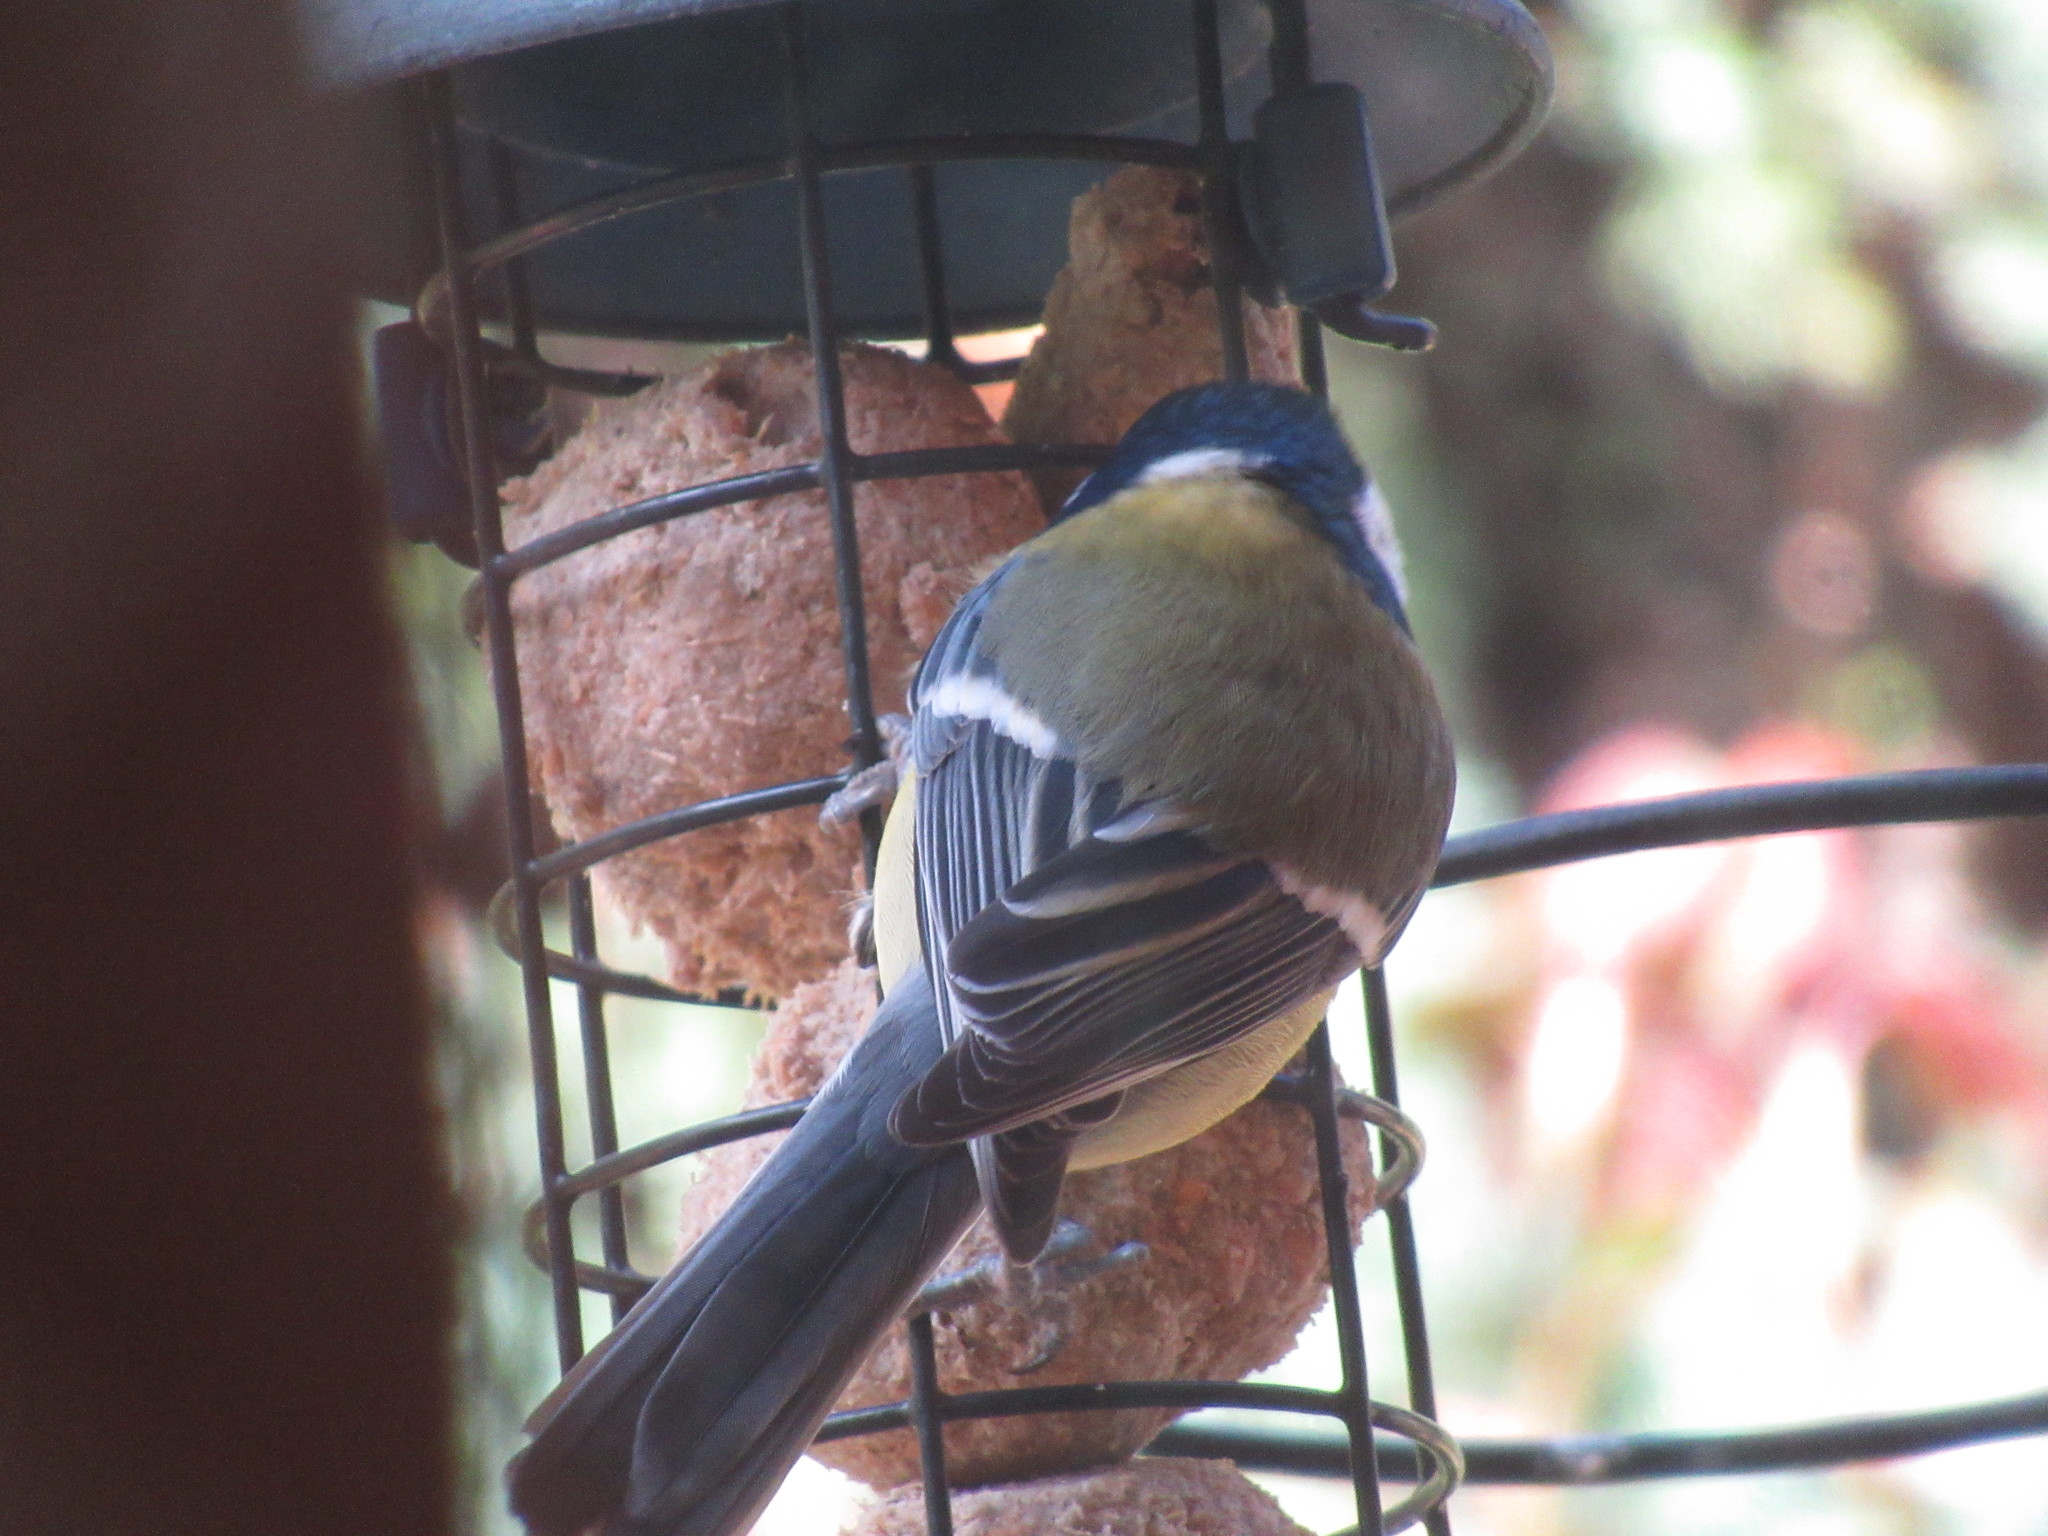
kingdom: Animalia
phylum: Chordata
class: Aves
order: Passeriformes
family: Paridae
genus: Parus
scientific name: Parus major
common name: Great tit
